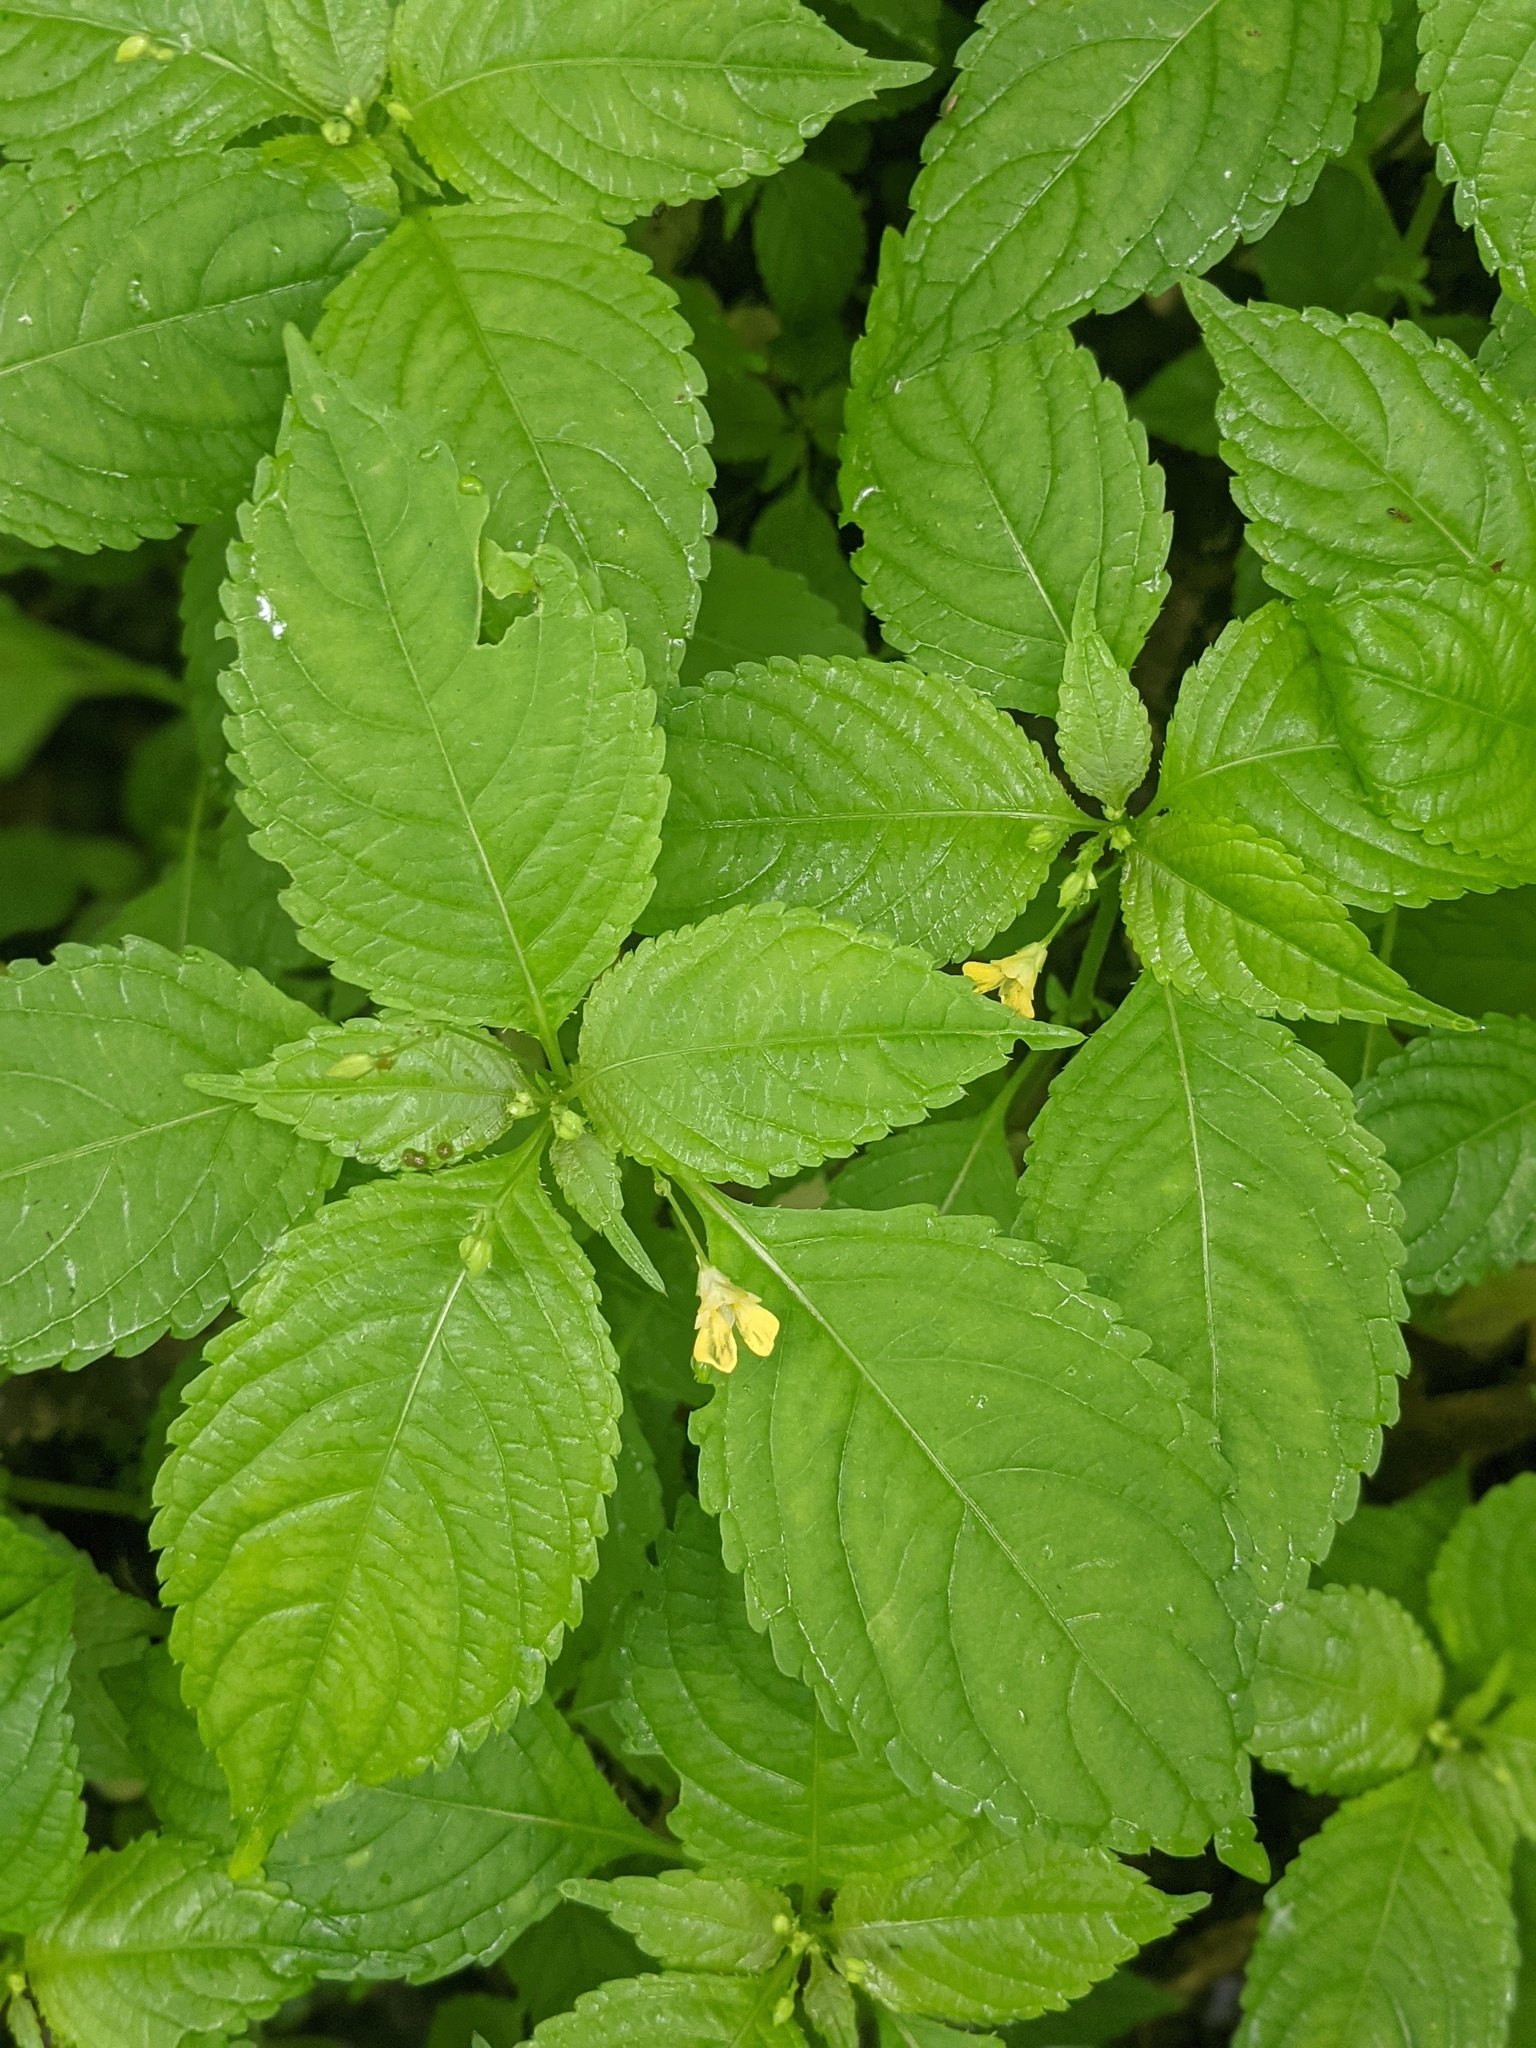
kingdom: Plantae
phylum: Tracheophyta
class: Magnoliopsida
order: Ericales
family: Balsaminaceae
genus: Impatiens
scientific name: Impatiens parviflora
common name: Small balsam
